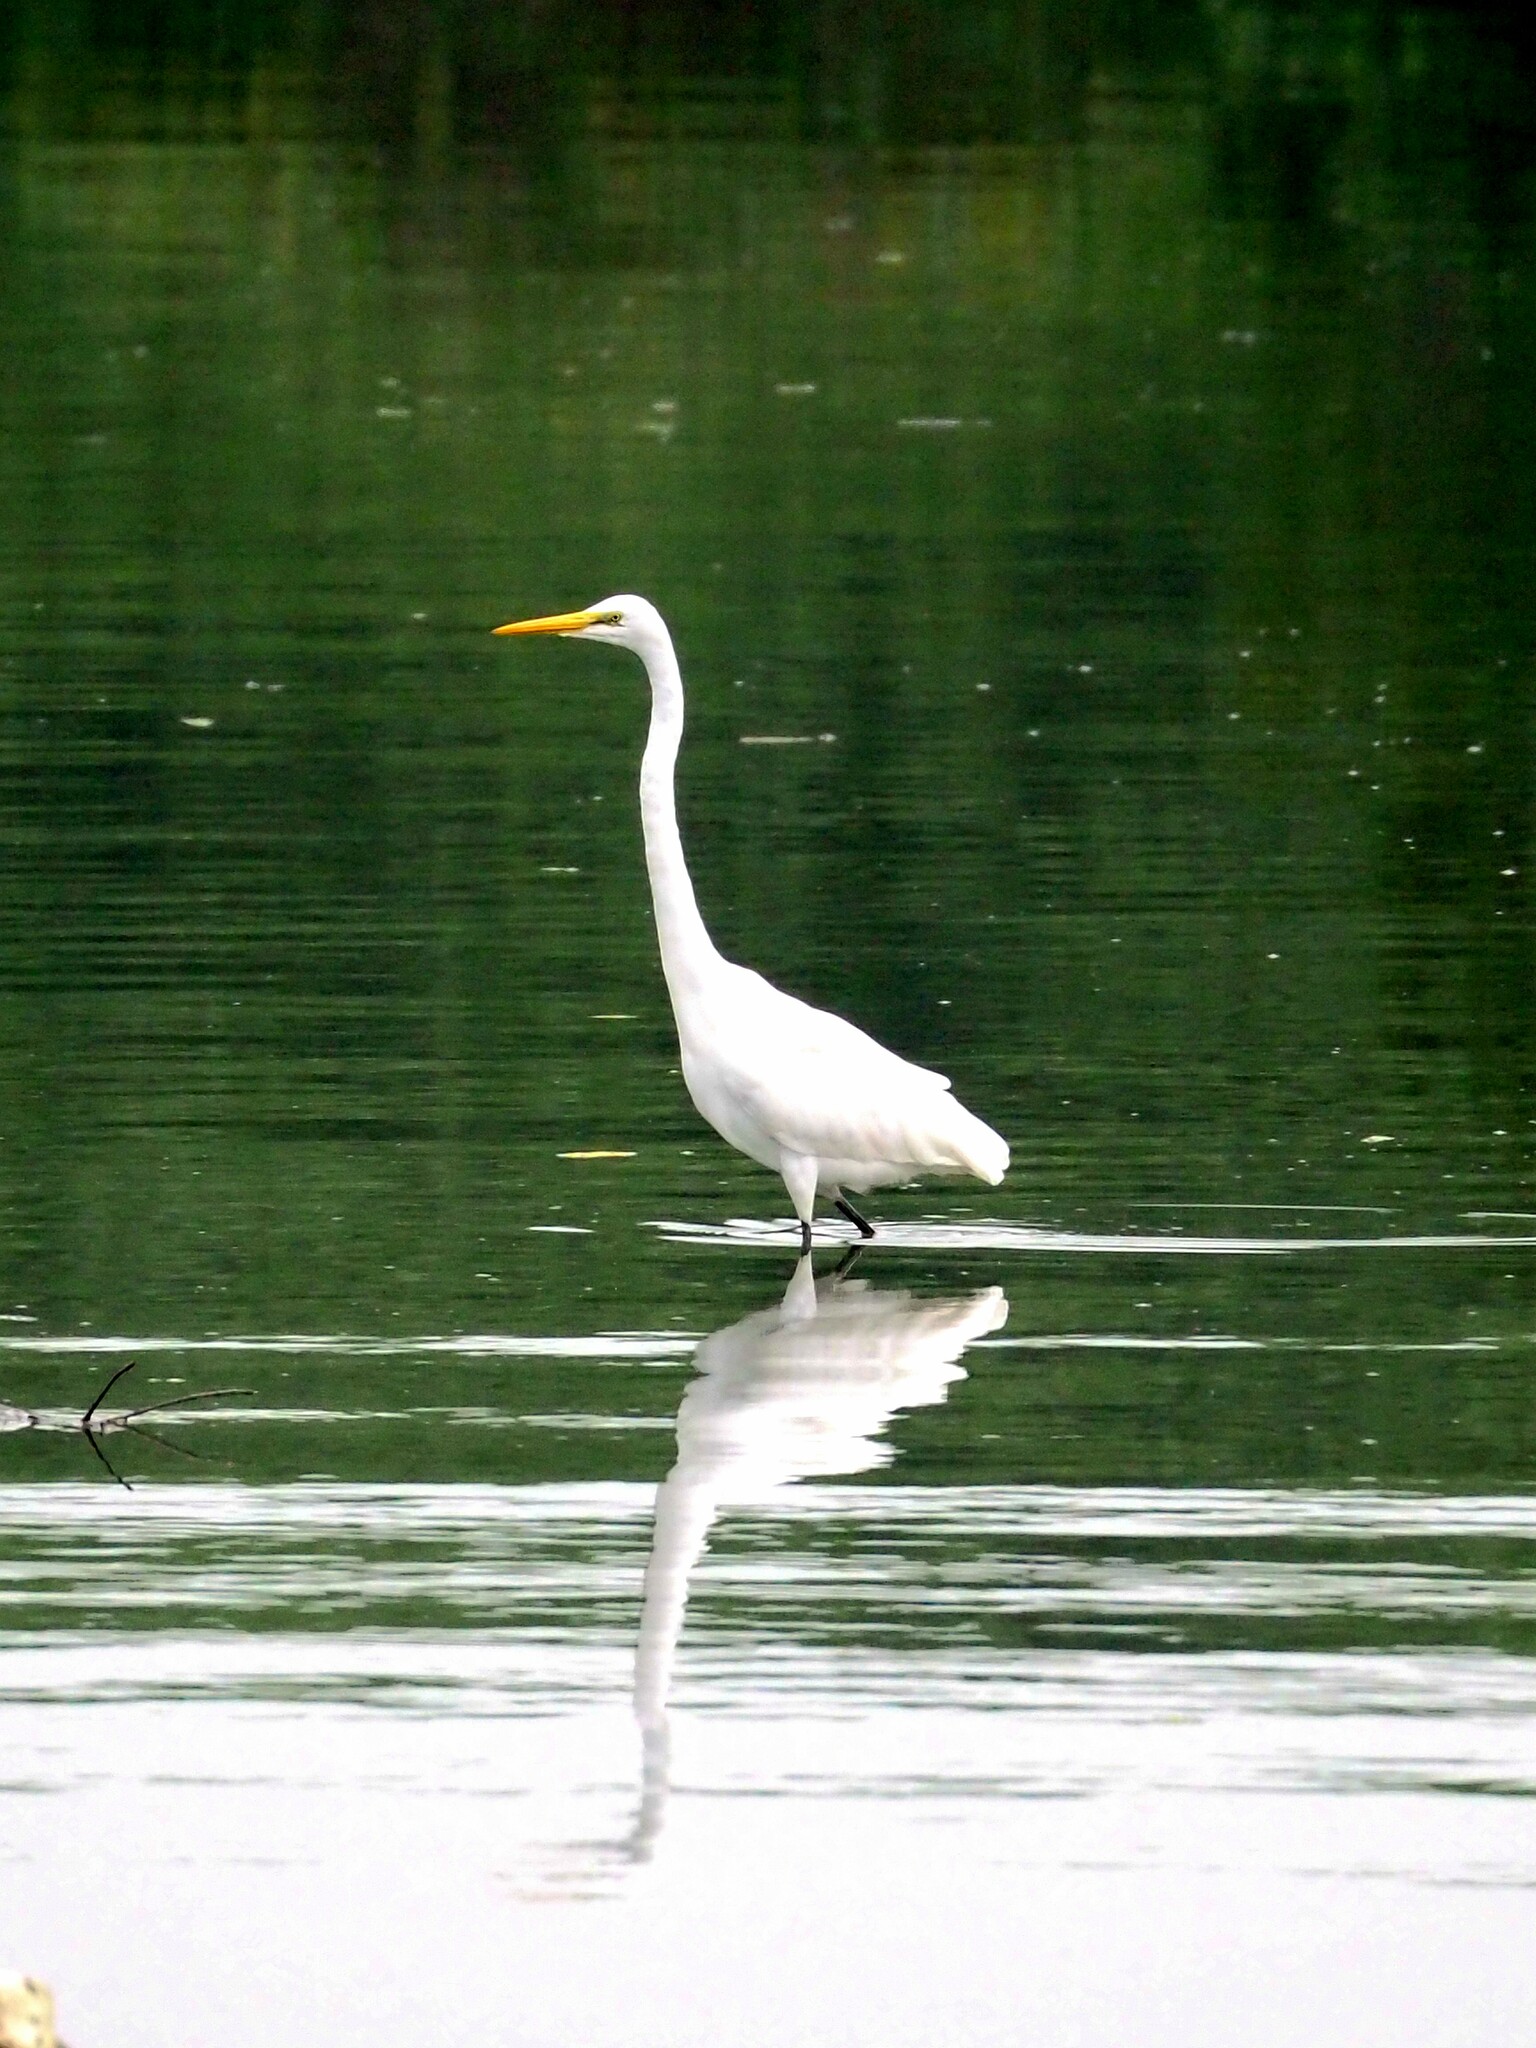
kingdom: Animalia
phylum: Chordata
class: Aves
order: Pelecaniformes
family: Ardeidae
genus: Ardea
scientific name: Ardea alba
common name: Great egret
